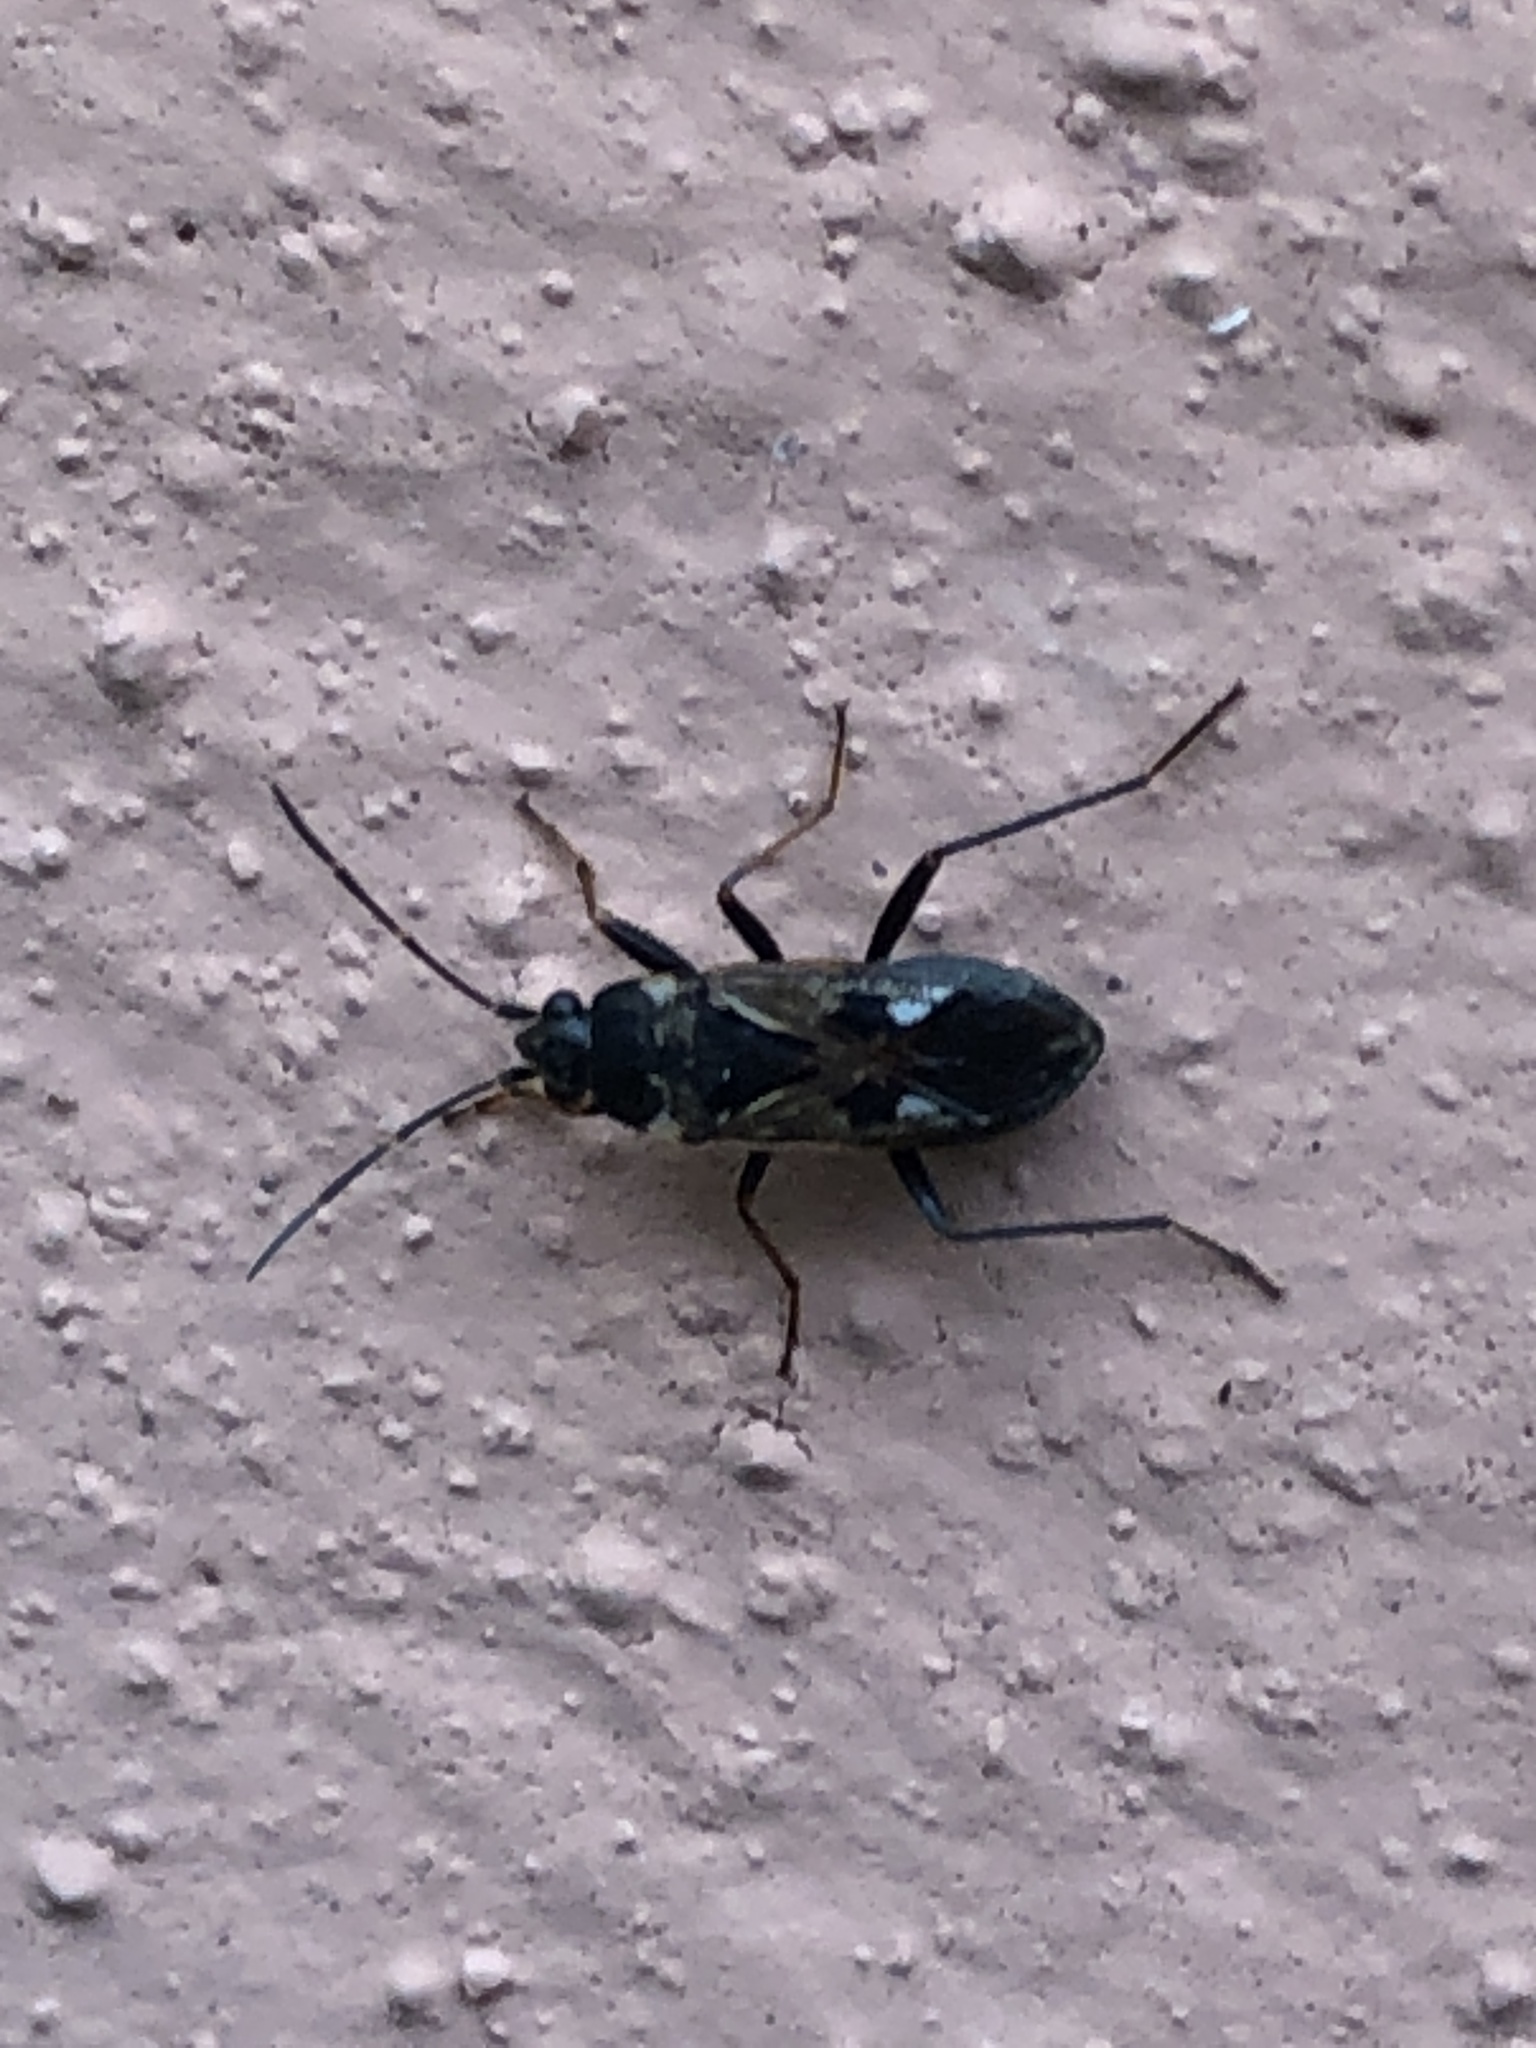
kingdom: Animalia
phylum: Arthropoda
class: Insecta
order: Hemiptera
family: Rhyparochromidae
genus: Rhyparochromus
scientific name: Rhyparochromus vulgaris
